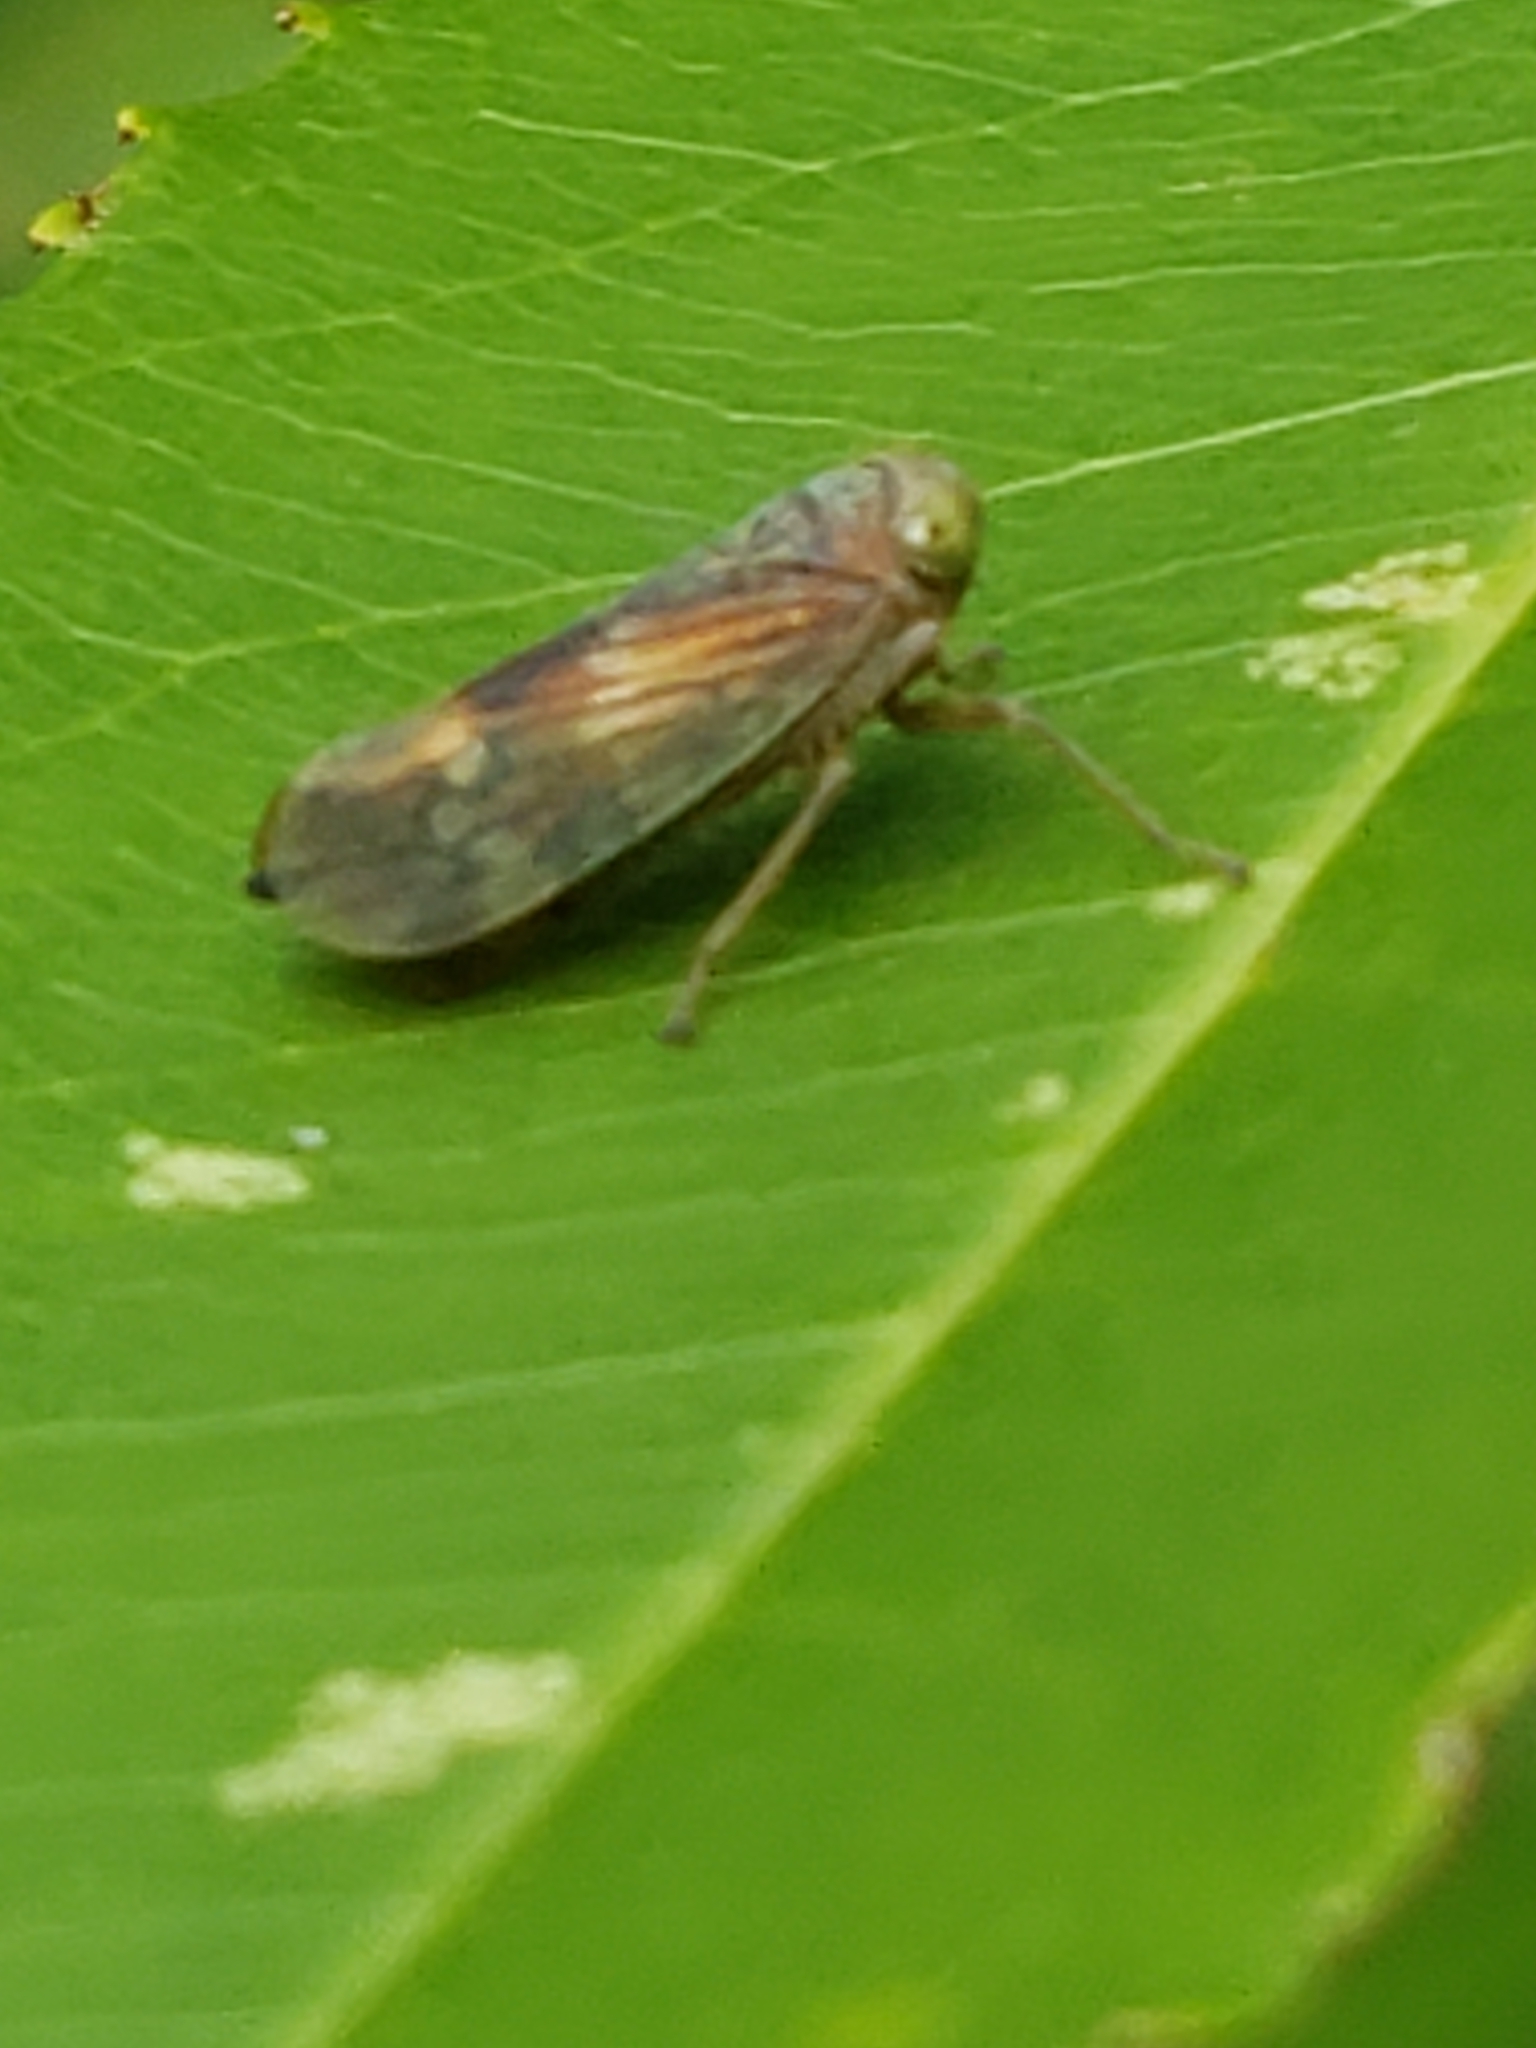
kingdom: Animalia
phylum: Arthropoda
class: Insecta
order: Hemiptera
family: Cicadellidae
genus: Jikradia
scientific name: Jikradia olitoria
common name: Coppery leafhopper
